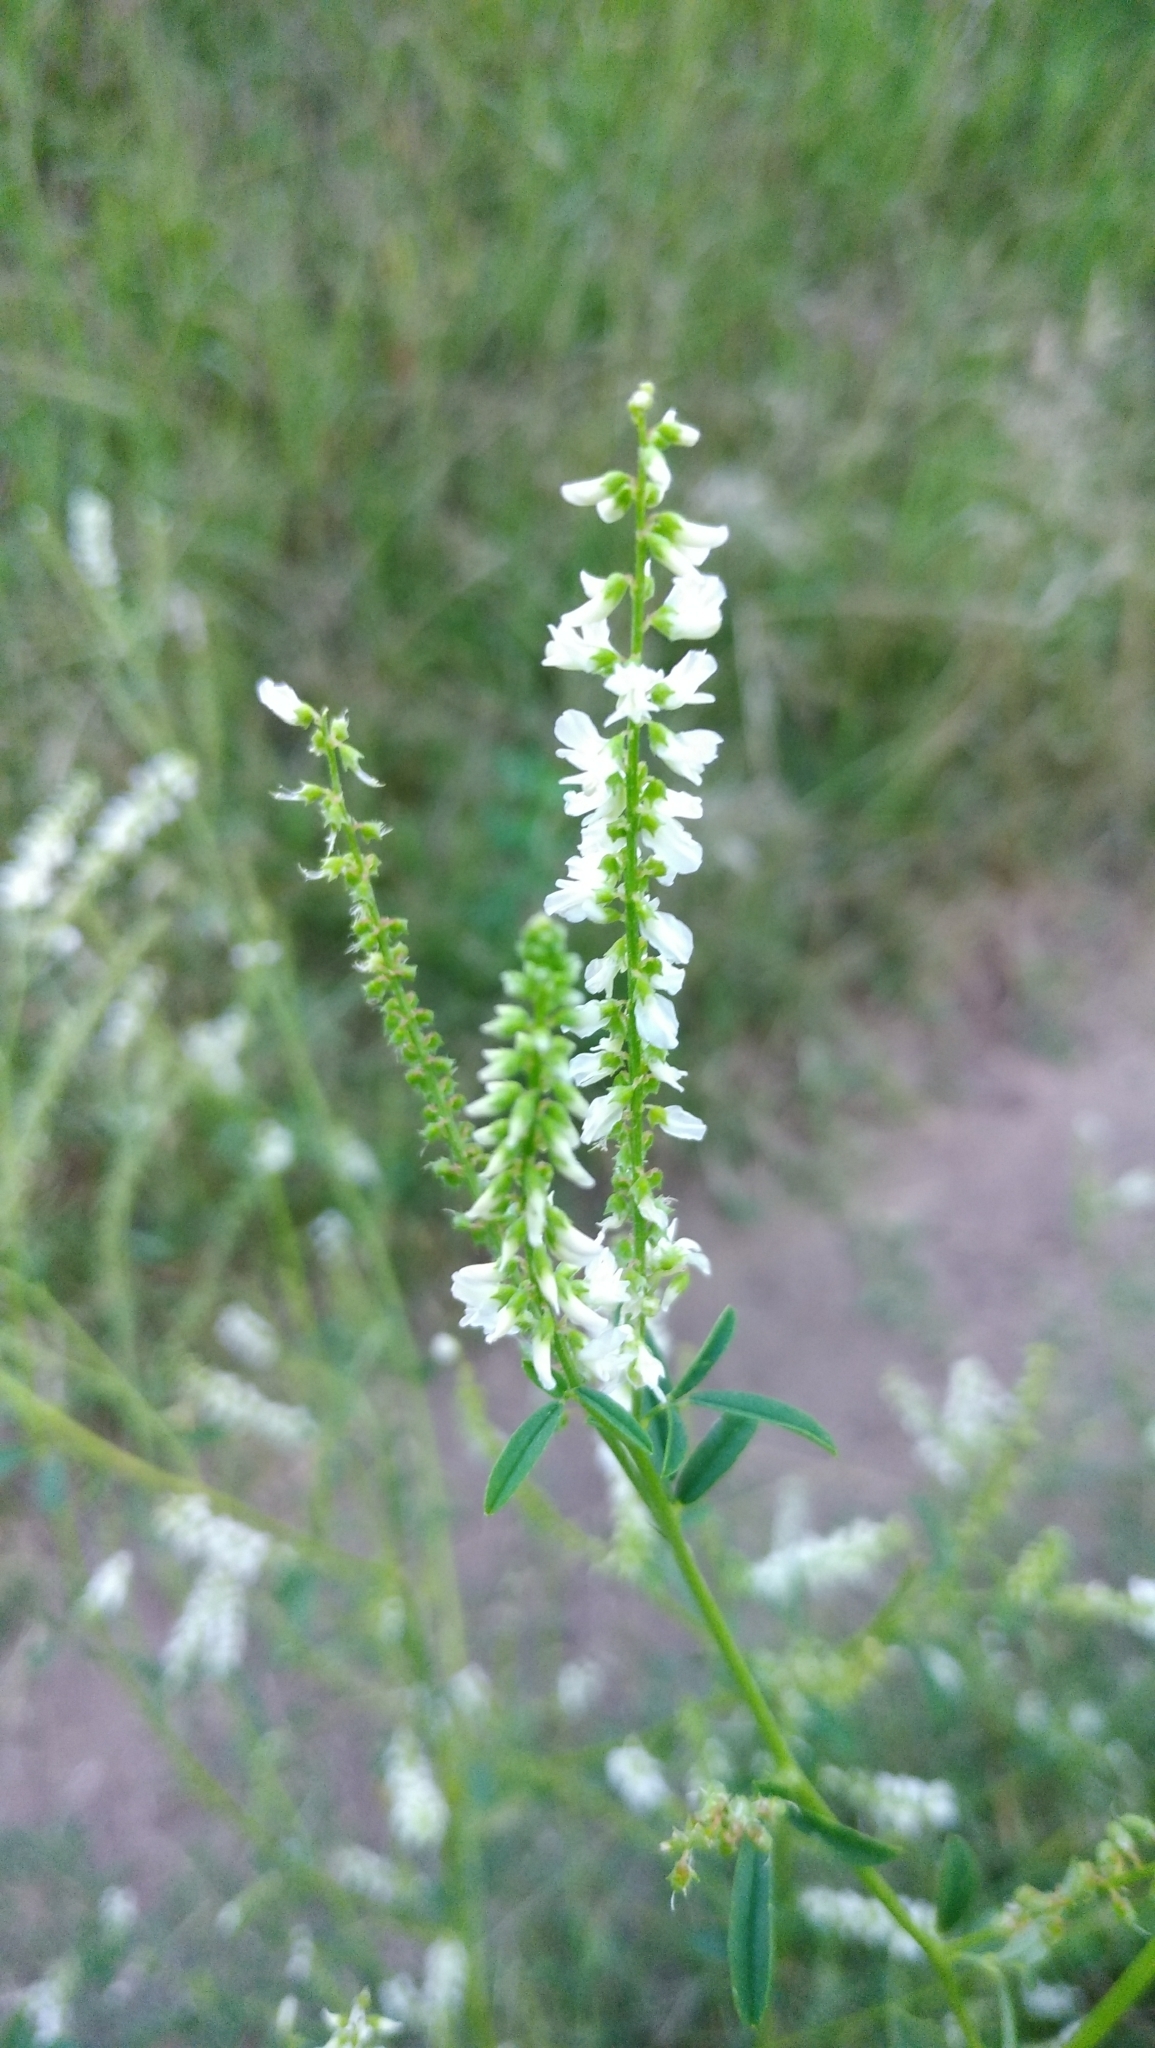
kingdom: Plantae
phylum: Tracheophyta
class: Magnoliopsida
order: Fabales
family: Fabaceae
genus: Melilotus
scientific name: Melilotus albus
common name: White melilot
